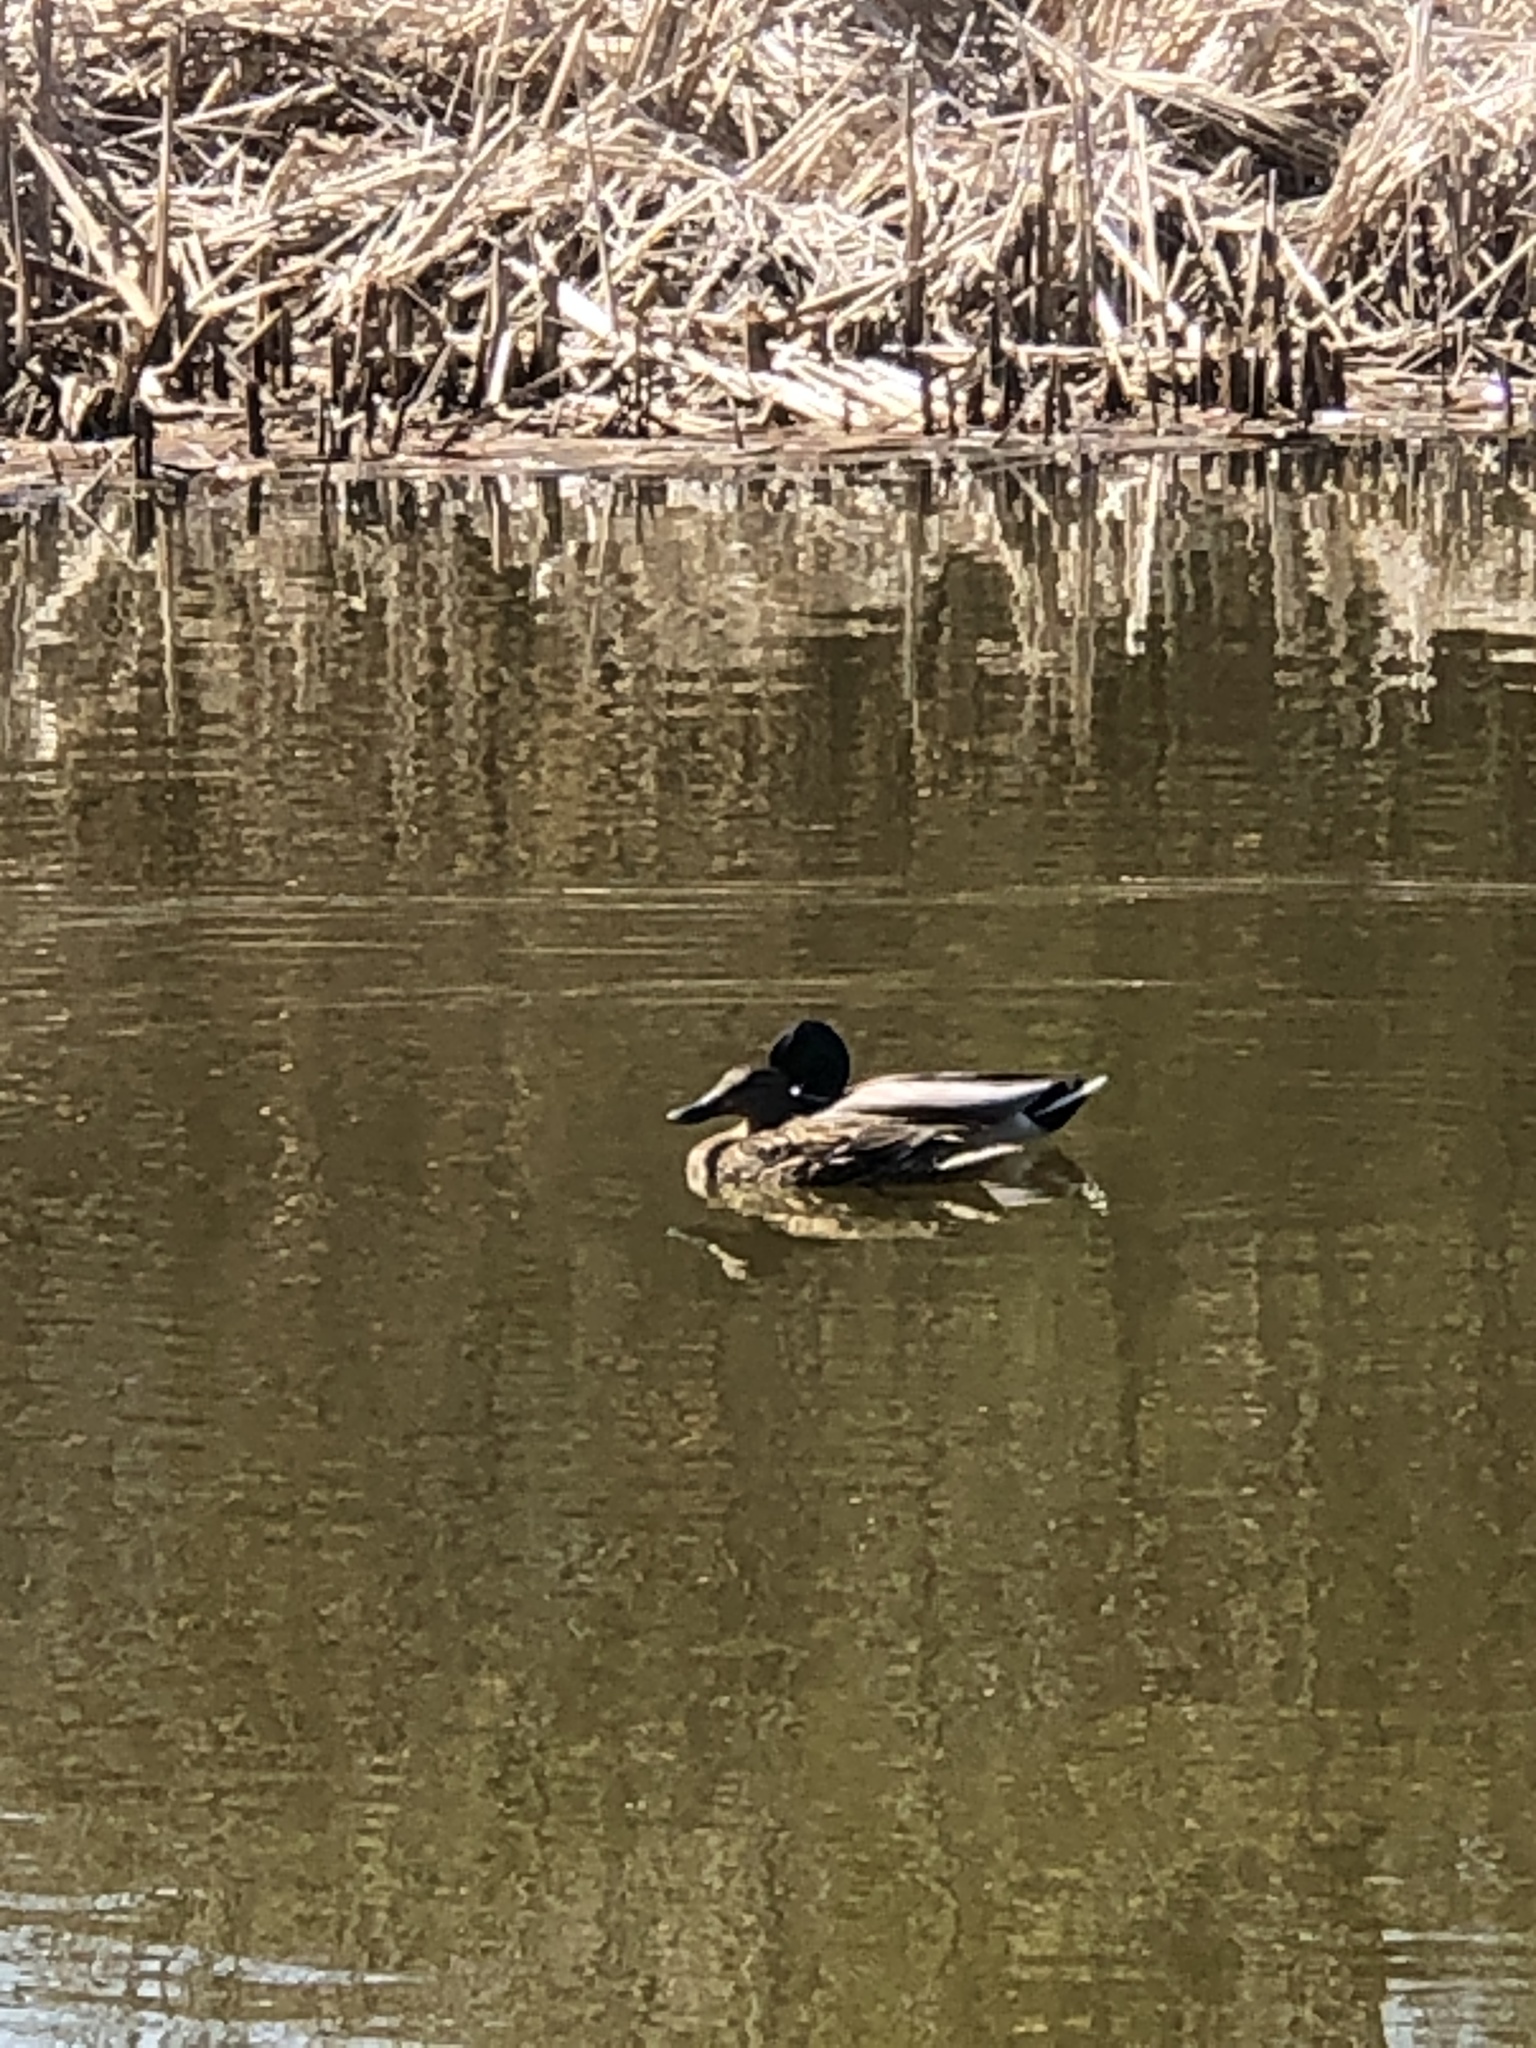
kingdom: Animalia
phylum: Chordata
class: Aves
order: Anseriformes
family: Anatidae
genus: Anas
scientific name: Anas platyrhynchos
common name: Mallard
